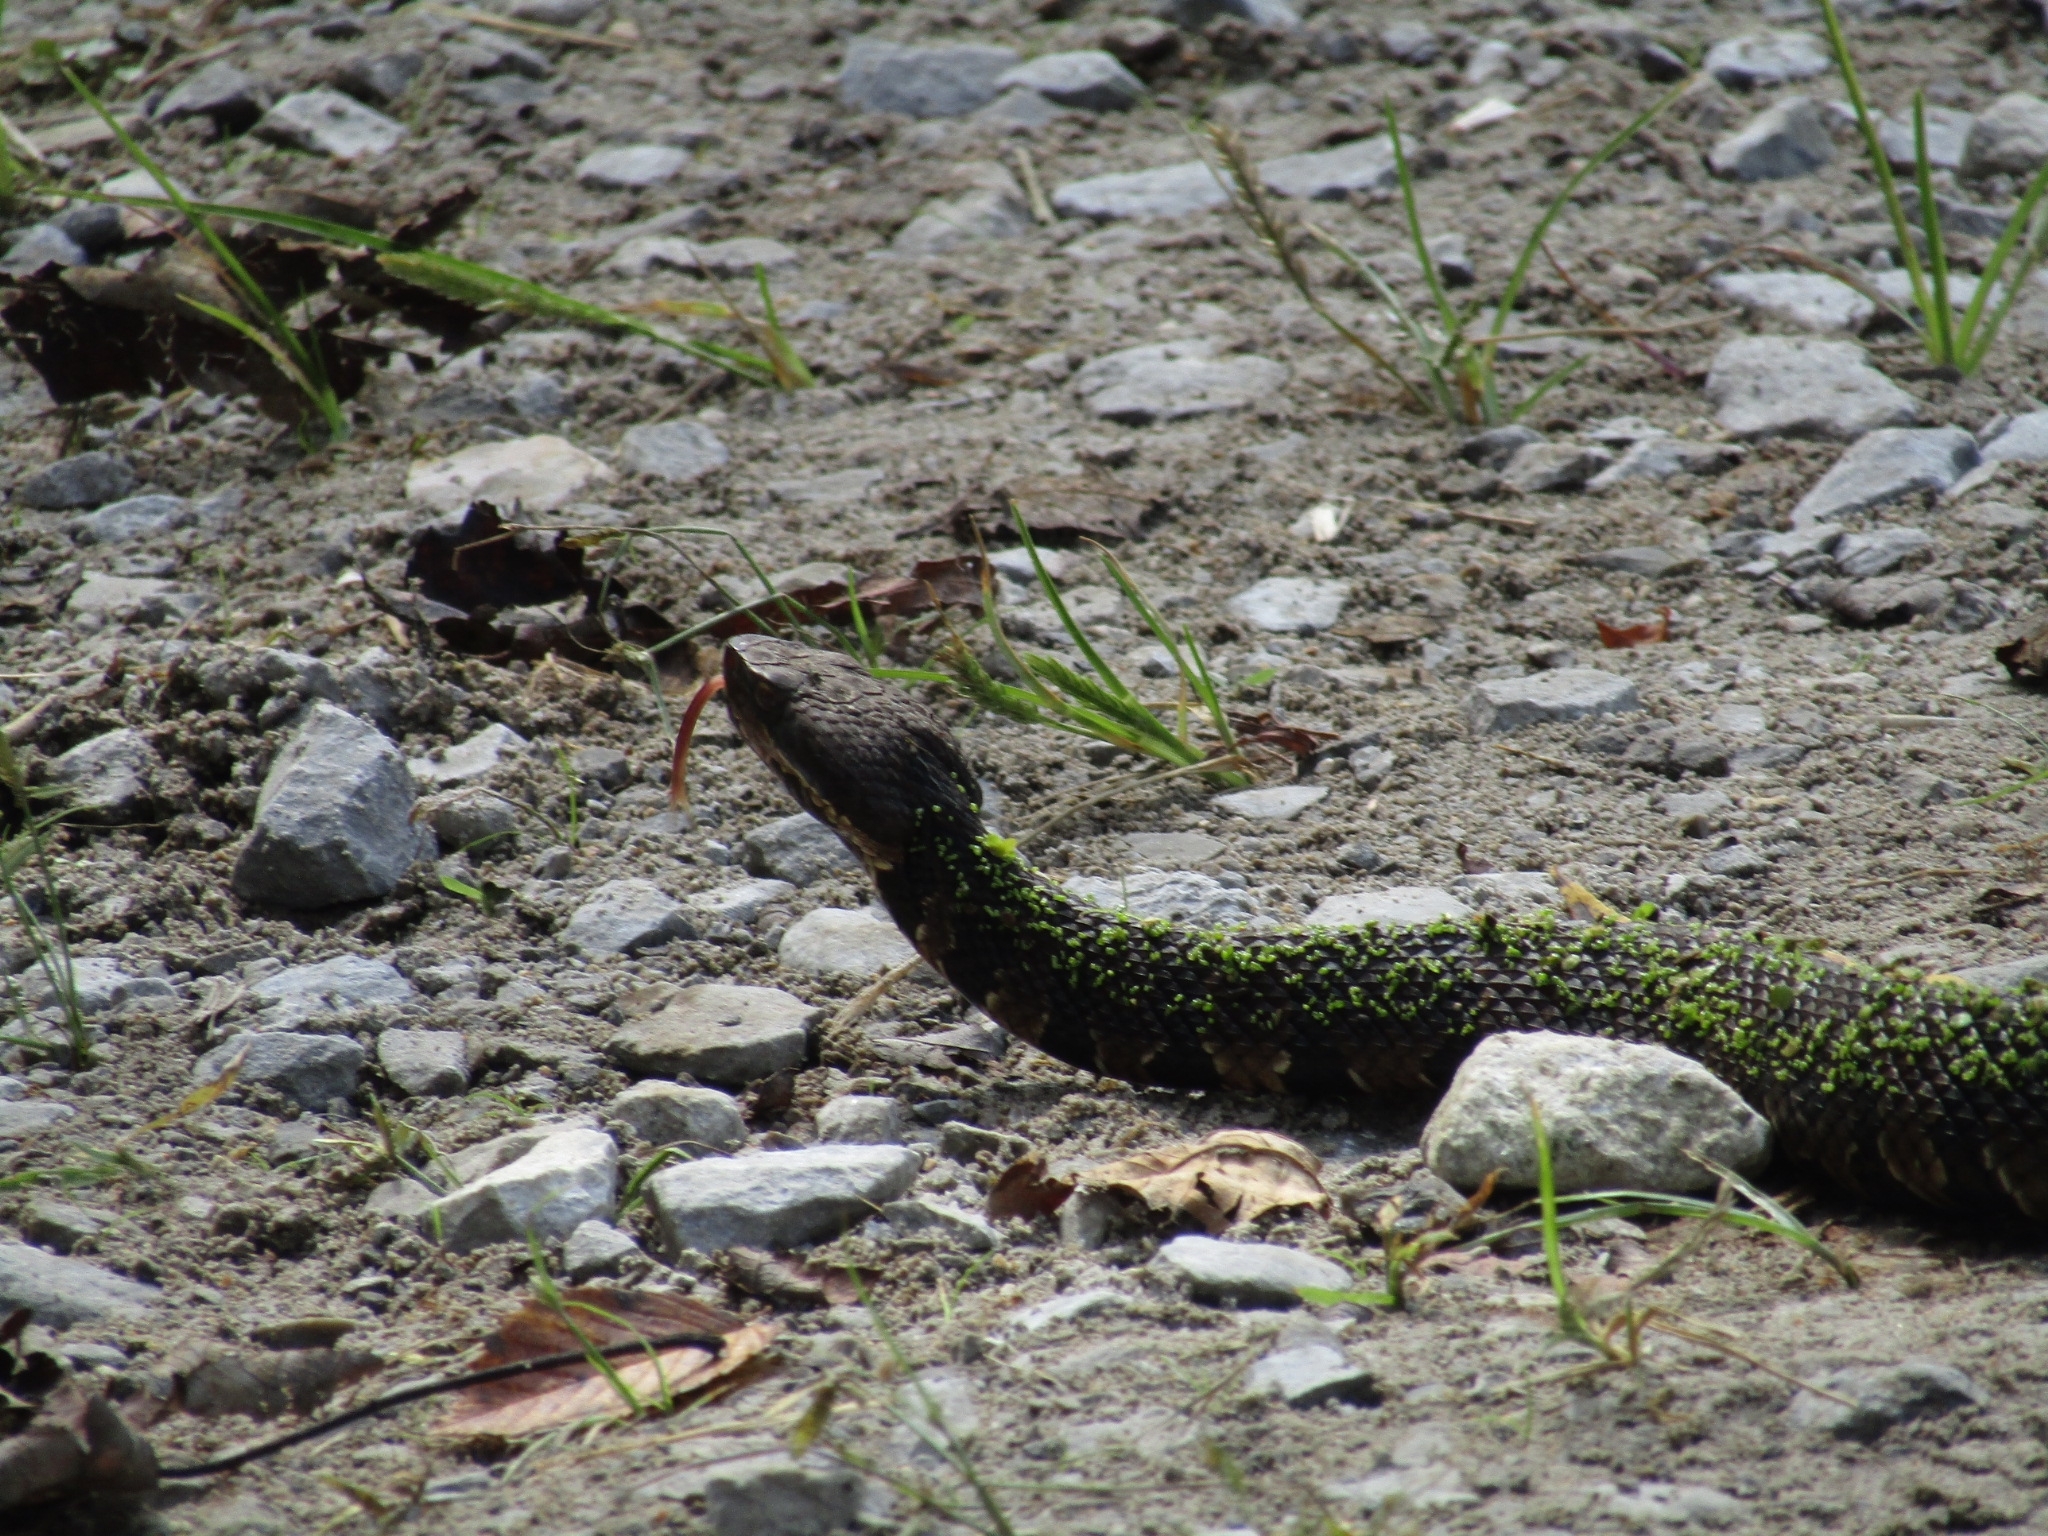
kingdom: Animalia
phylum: Chordata
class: Squamata
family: Viperidae
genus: Agkistrodon
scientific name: Agkistrodon piscivorus
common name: Cottonmouth
